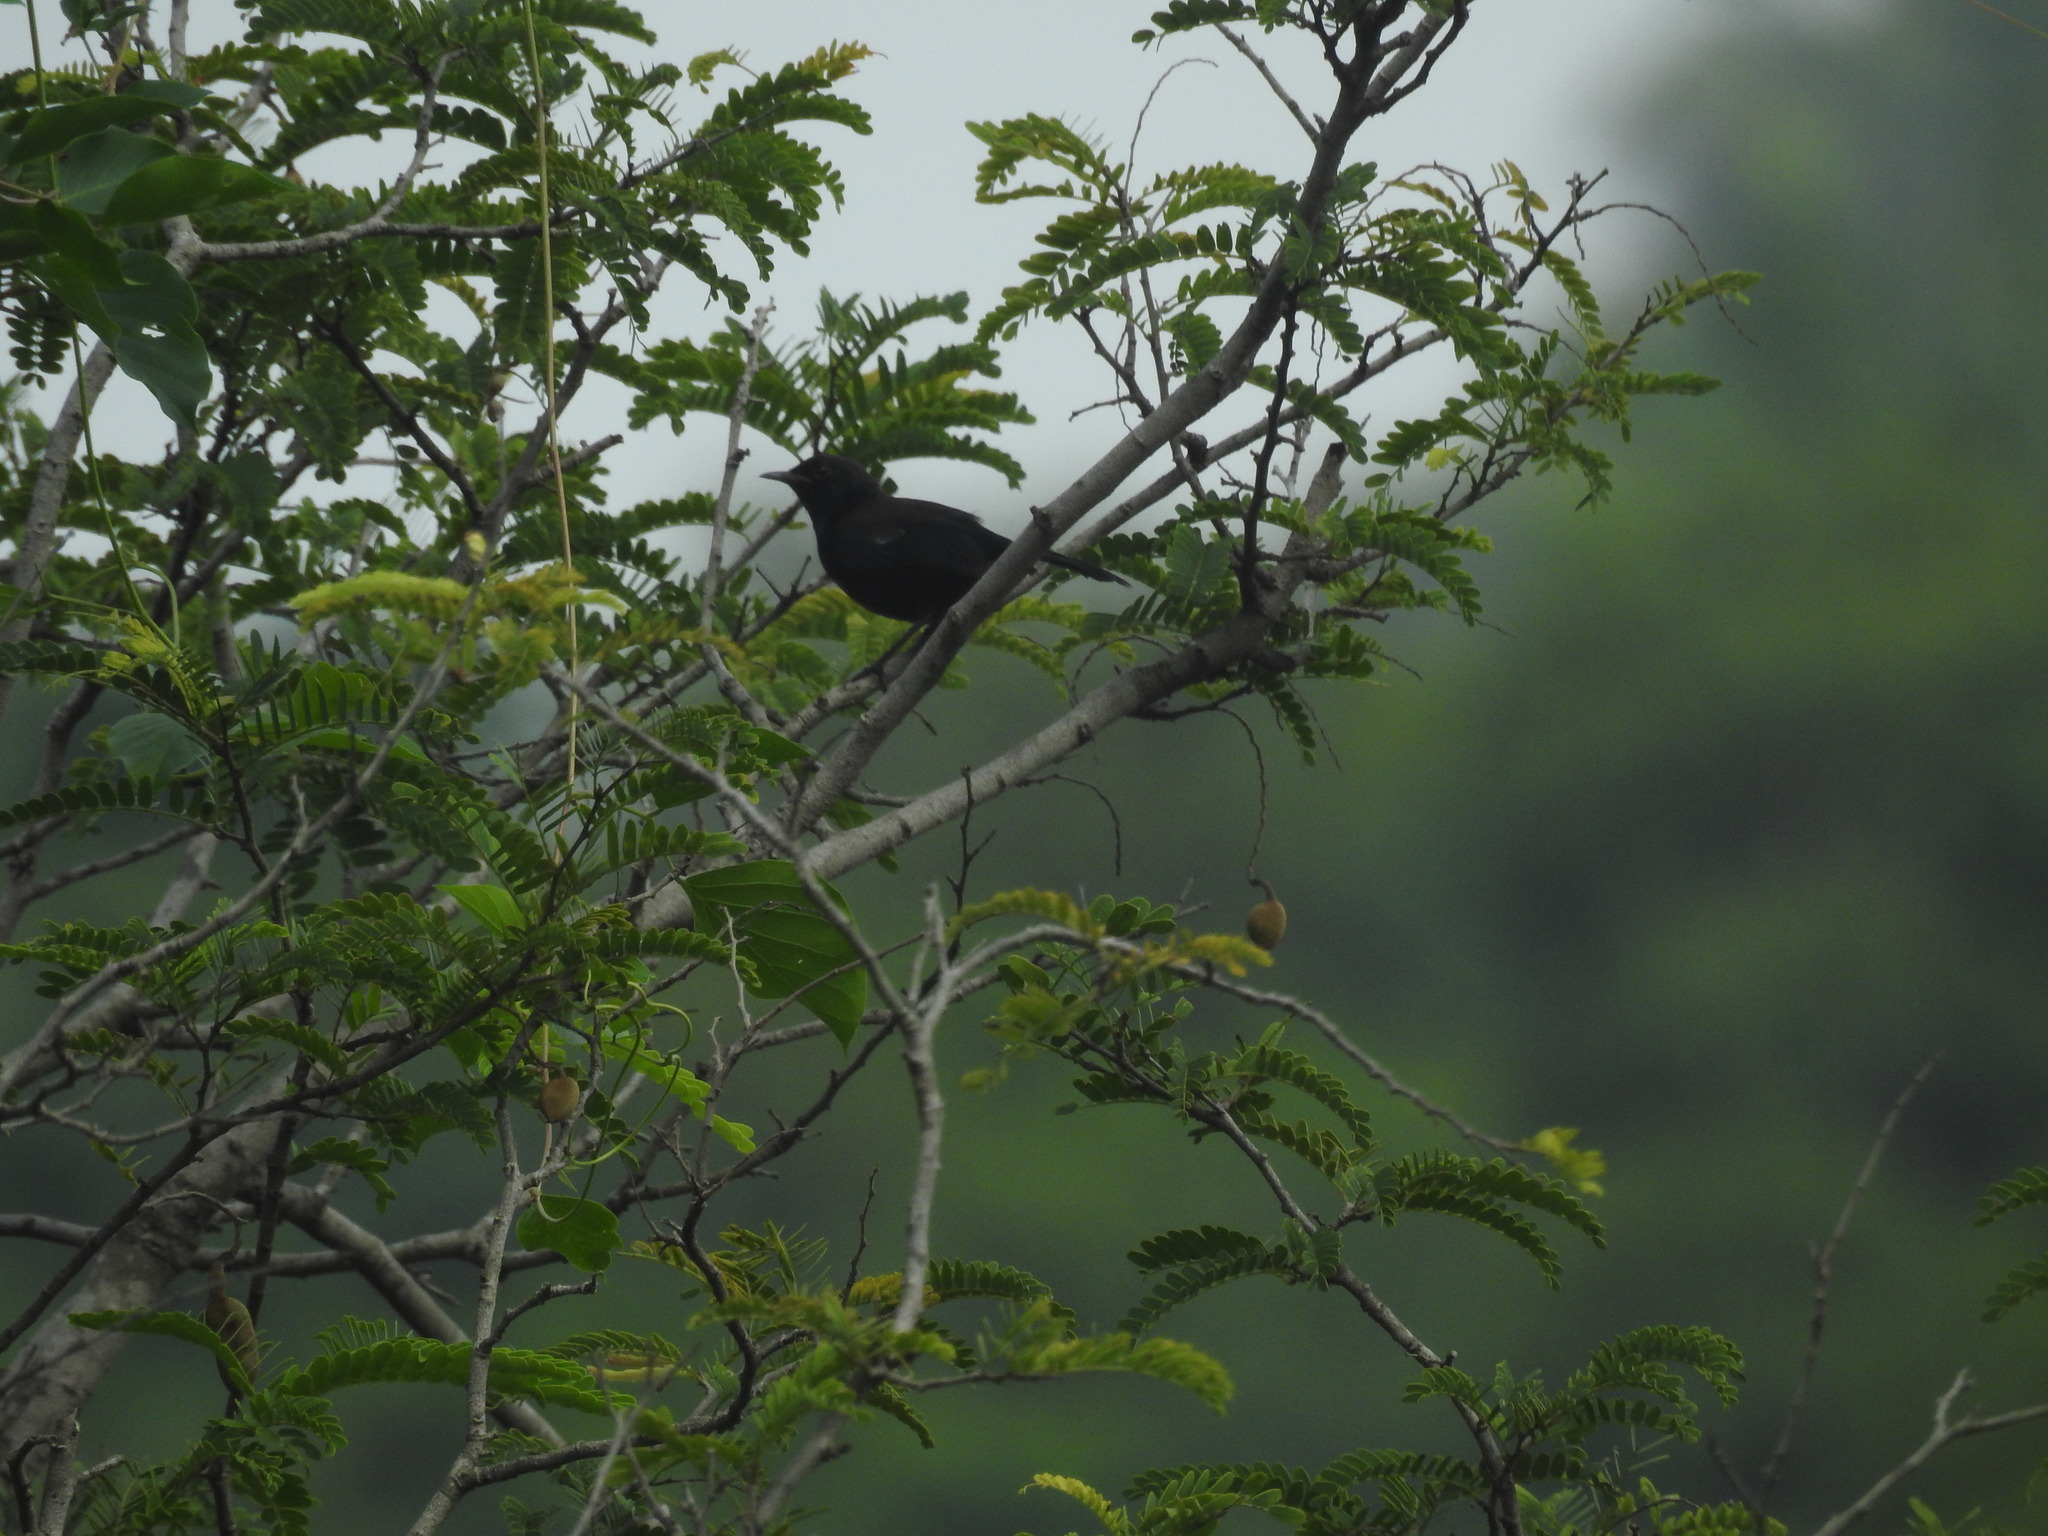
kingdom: Animalia
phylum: Chordata
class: Aves
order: Passeriformes
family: Muscicapidae
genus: Saxicoloides
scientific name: Saxicoloides fulicatus
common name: Indian robin
